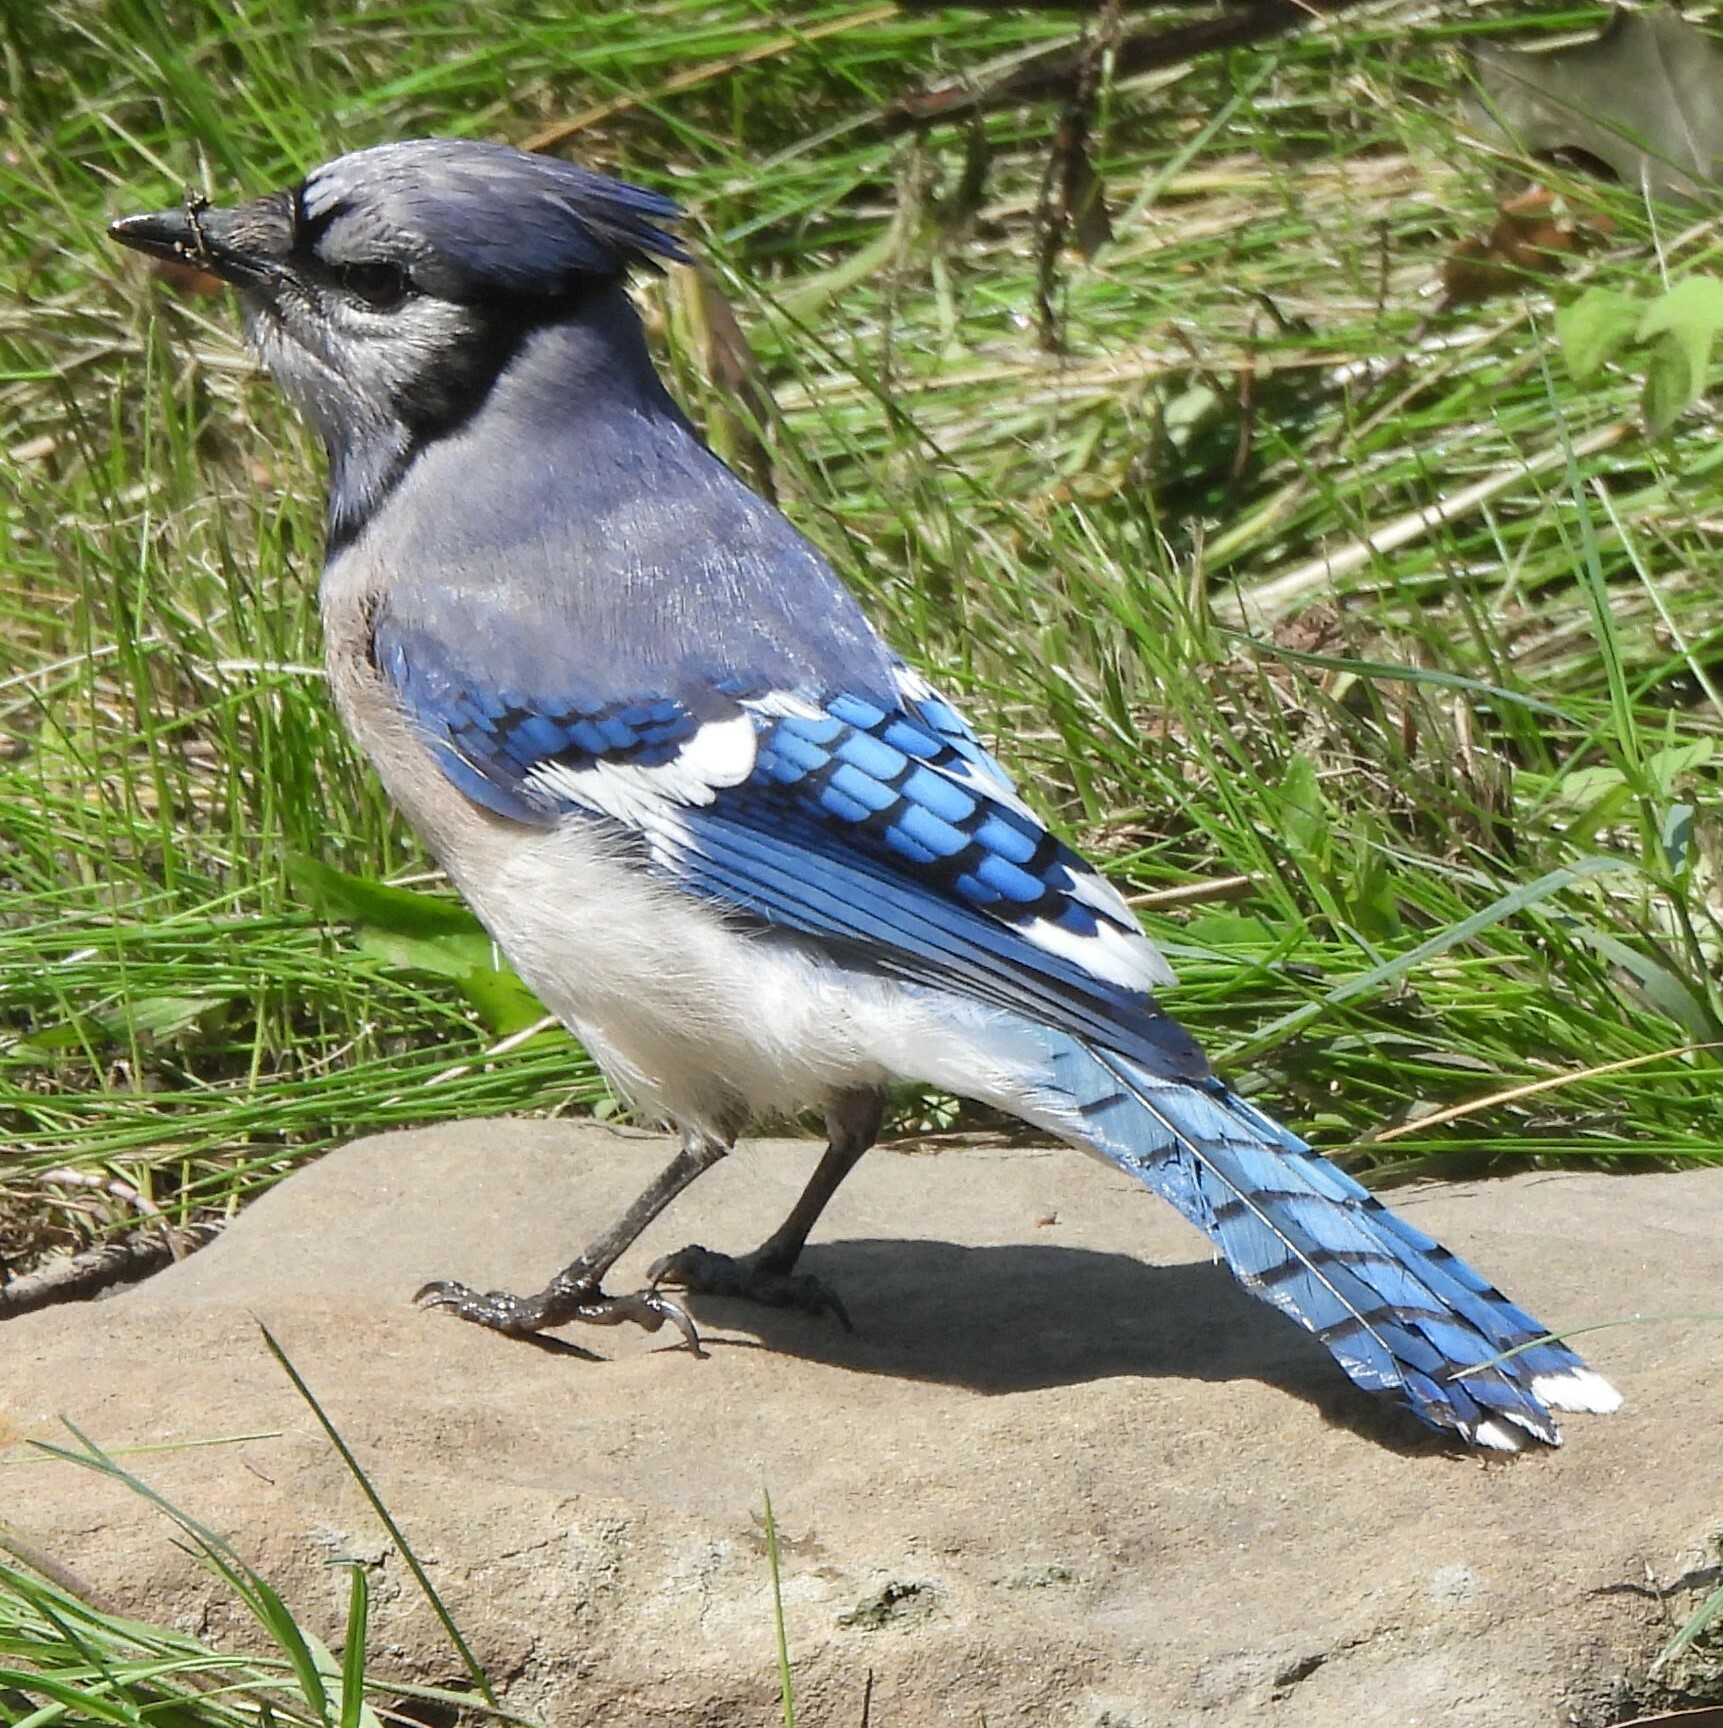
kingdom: Animalia
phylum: Chordata
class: Aves
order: Passeriformes
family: Corvidae
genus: Cyanocitta
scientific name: Cyanocitta cristata
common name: Blue jay
